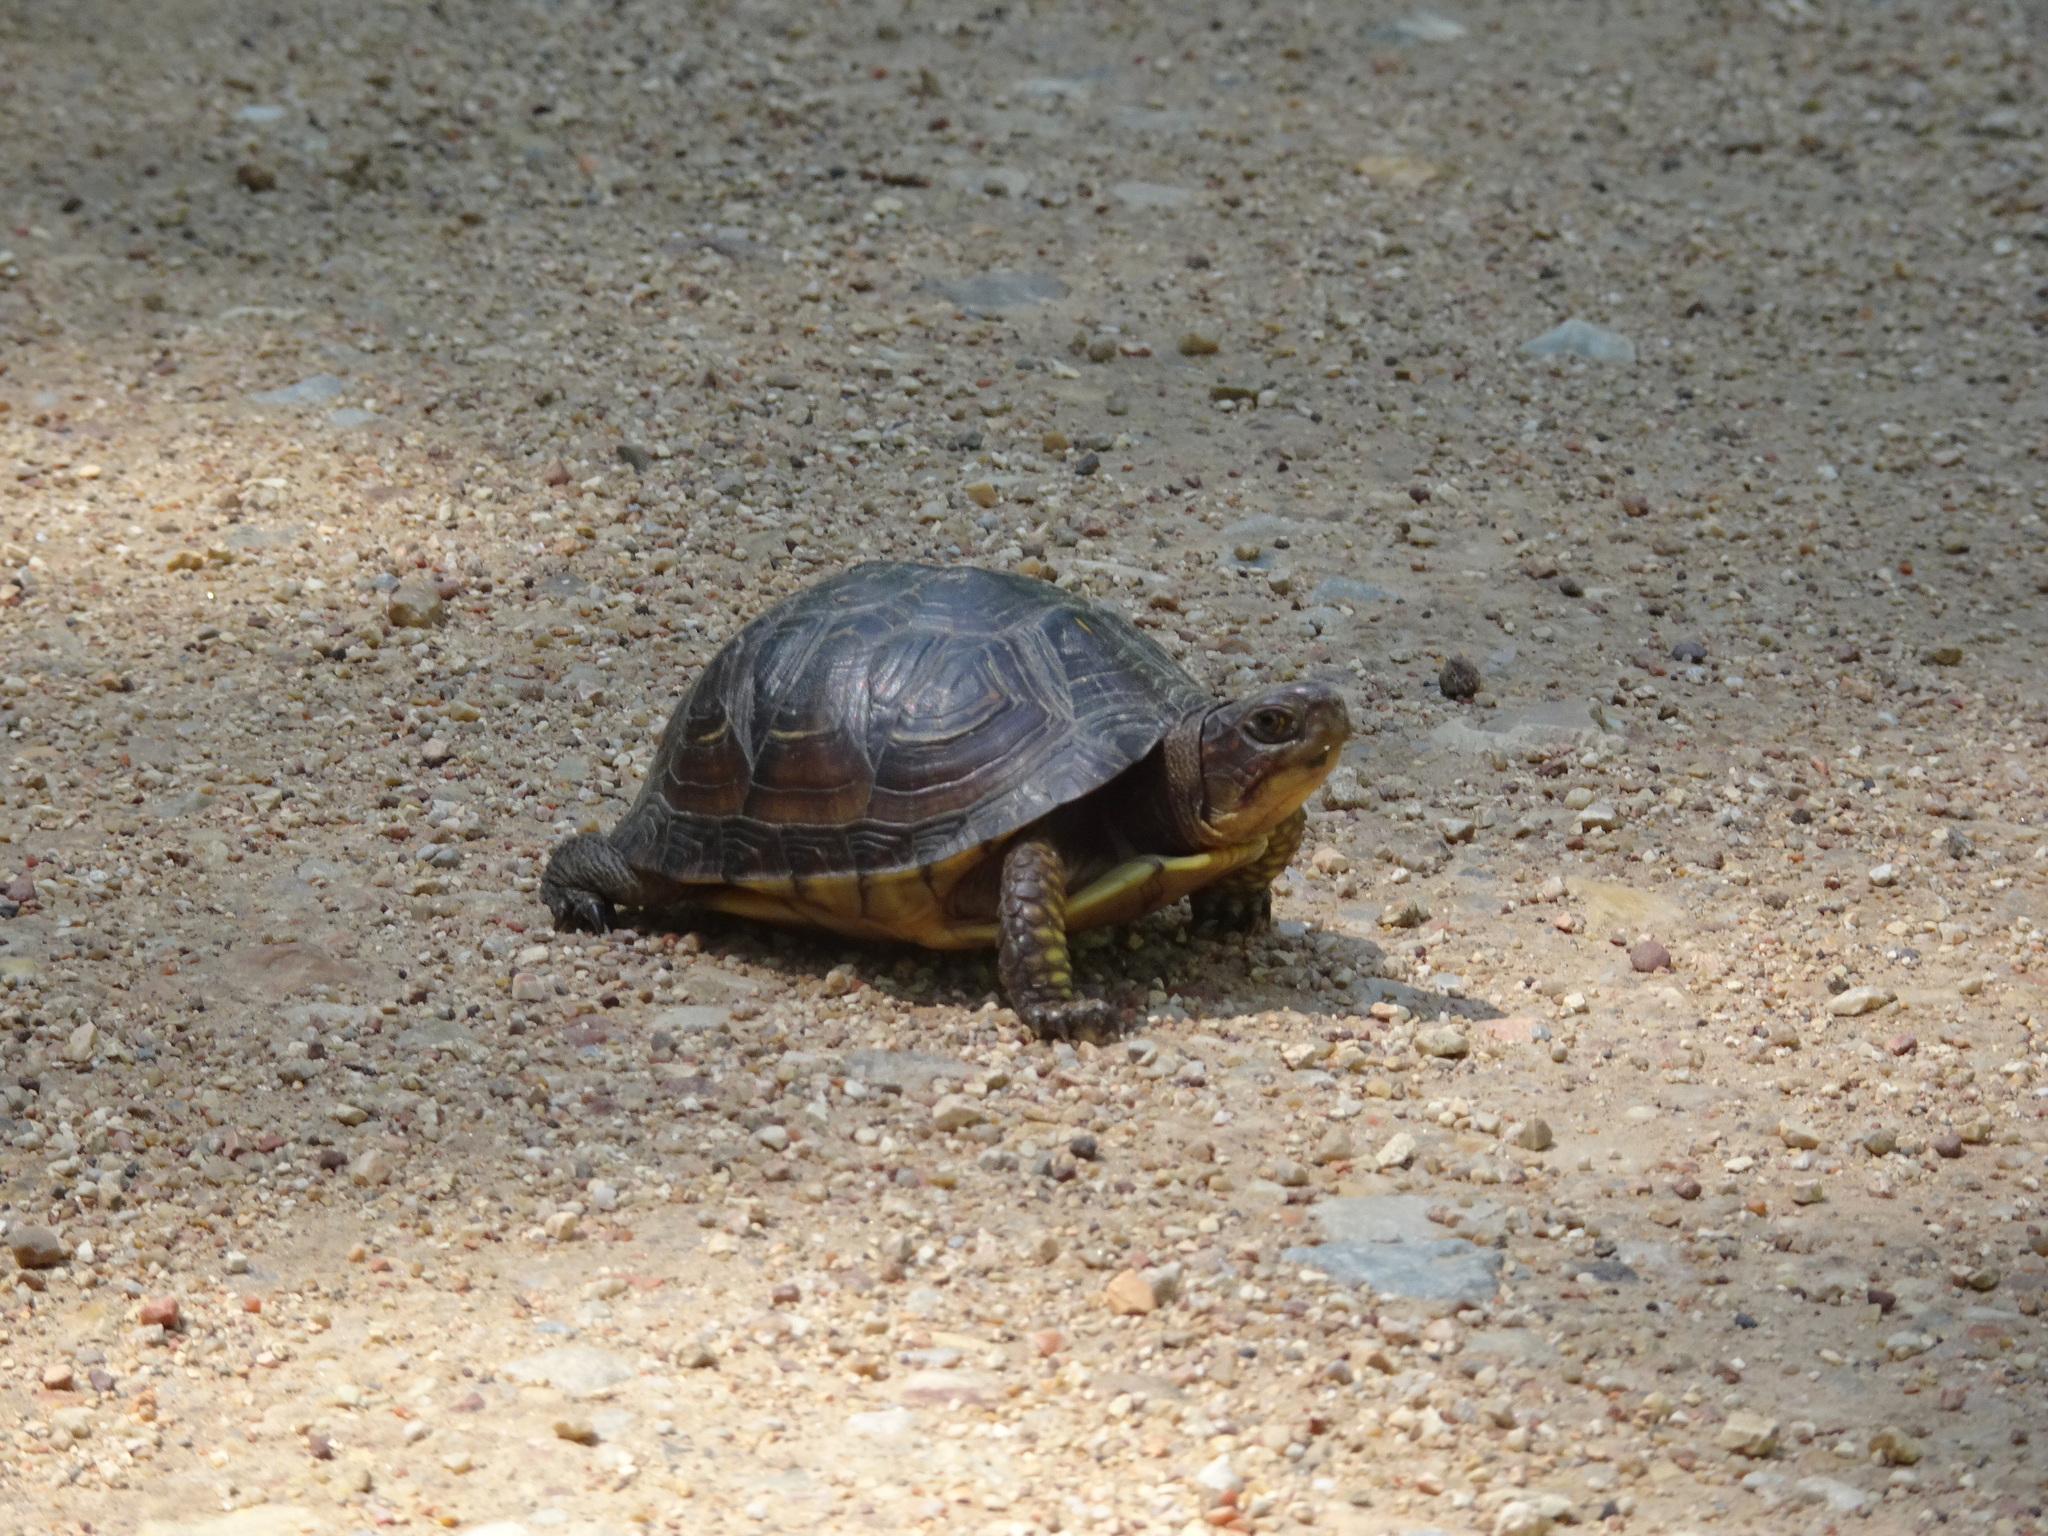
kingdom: Animalia
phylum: Chordata
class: Testudines
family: Emydidae
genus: Terrapene
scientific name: Terrapene carolina
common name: Common box turtle
